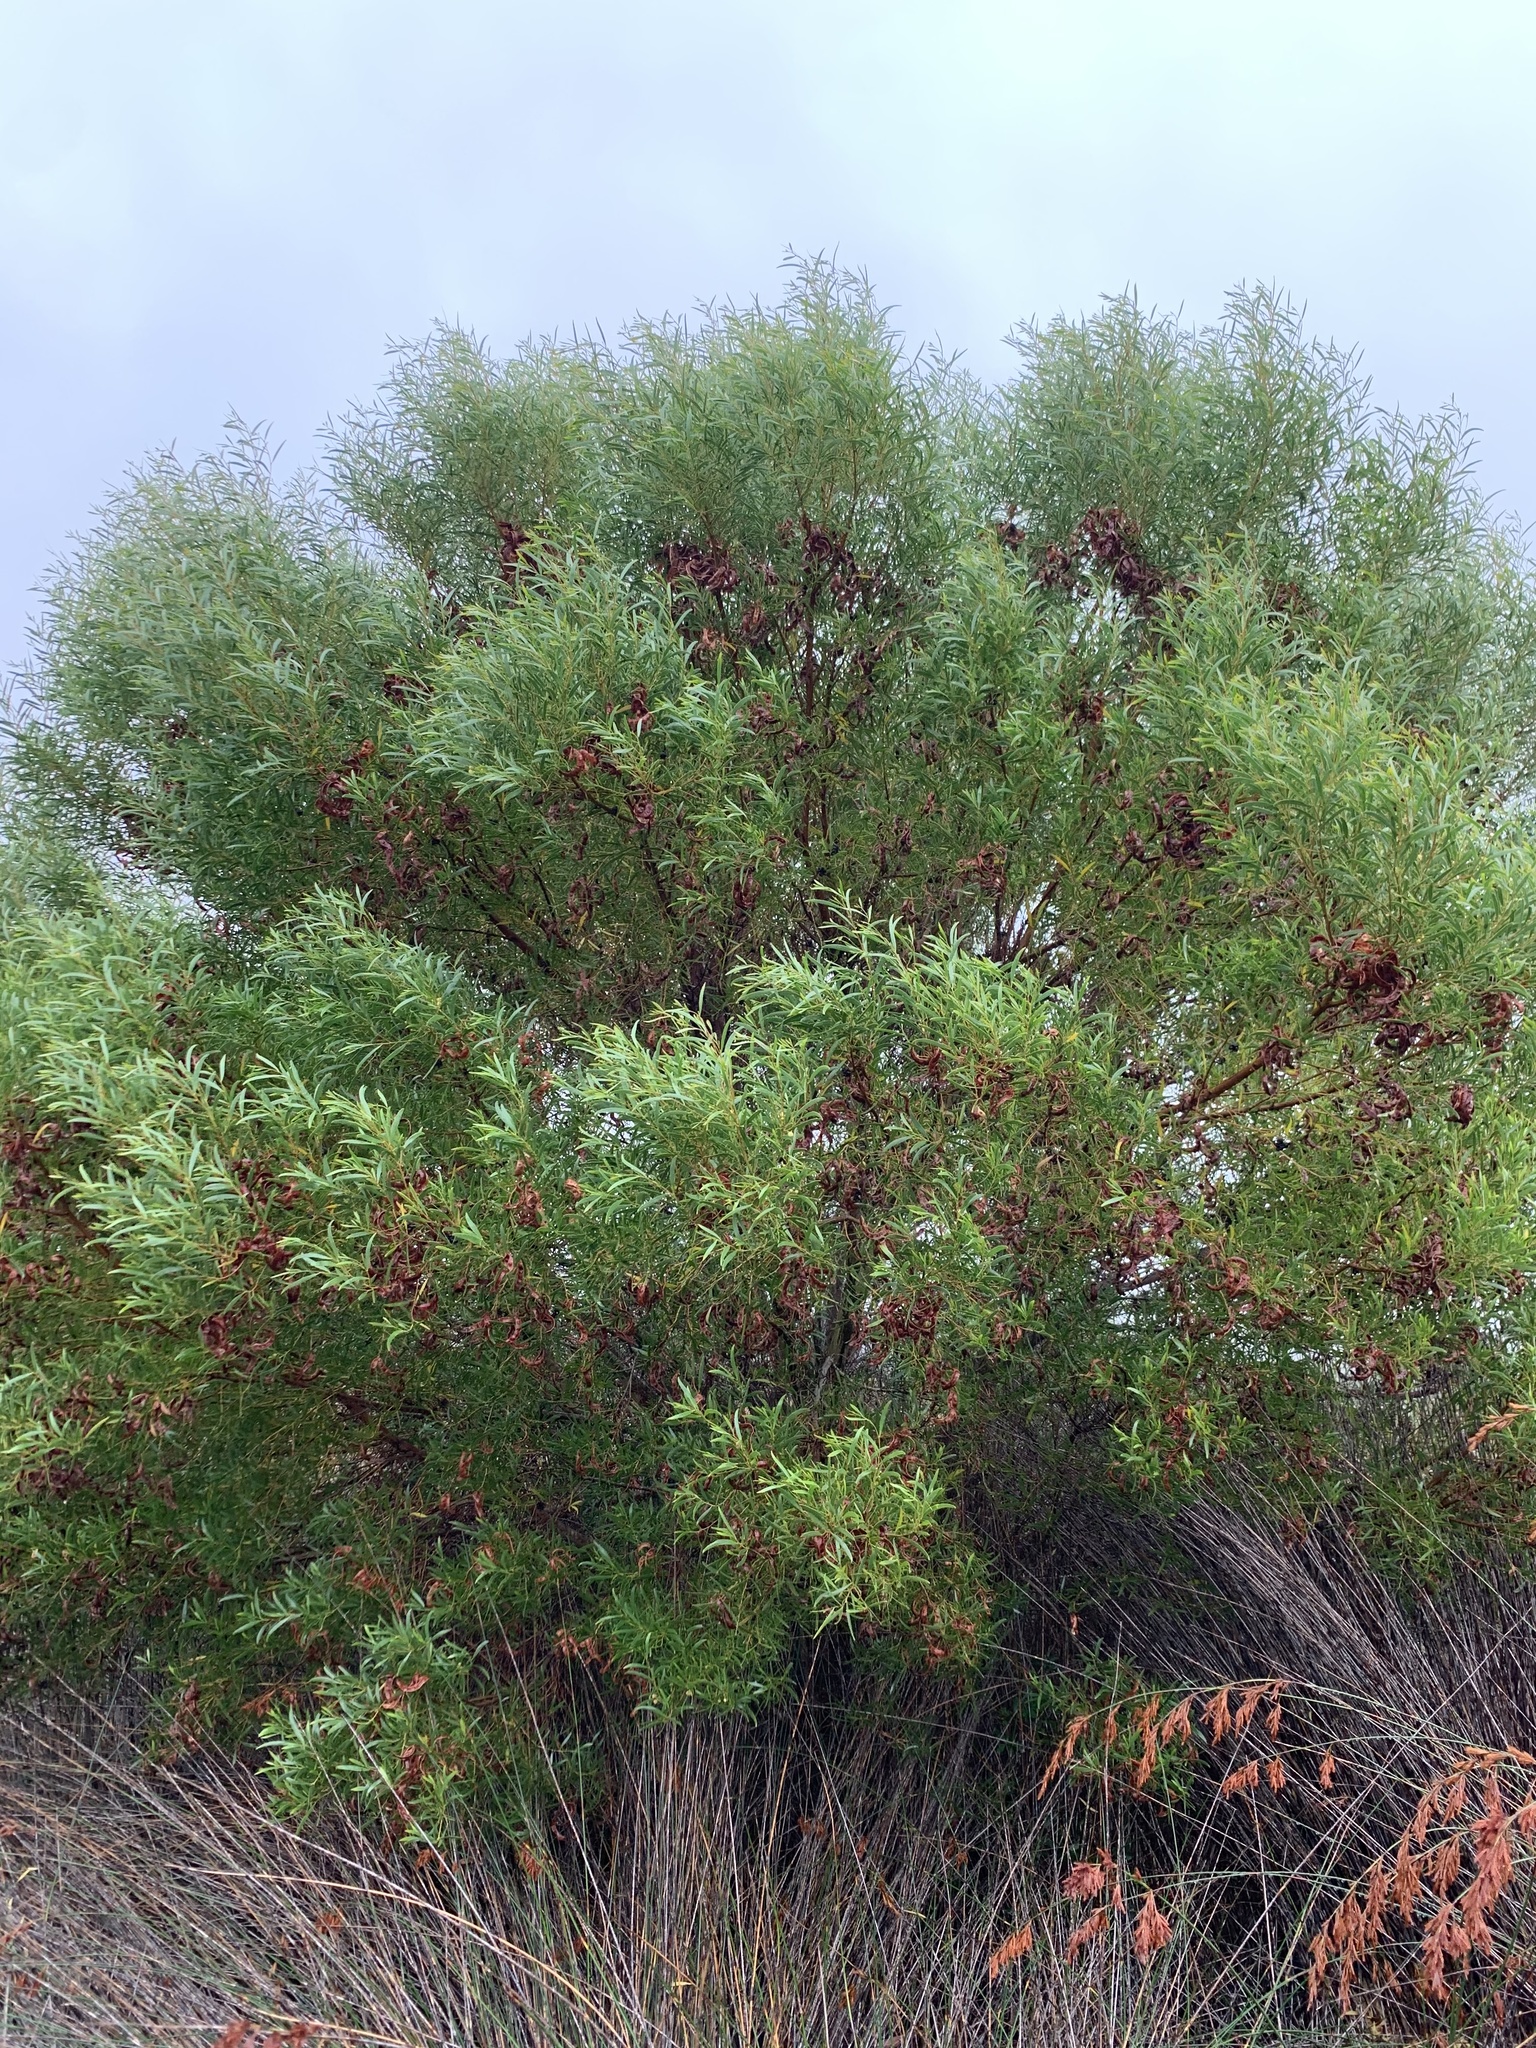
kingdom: Plantae
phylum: Tracheophyta
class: Magnoliopsida
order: Fabales
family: Fabaceae
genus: Acacia
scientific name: Acacia cyclops
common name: Coastal wattle
